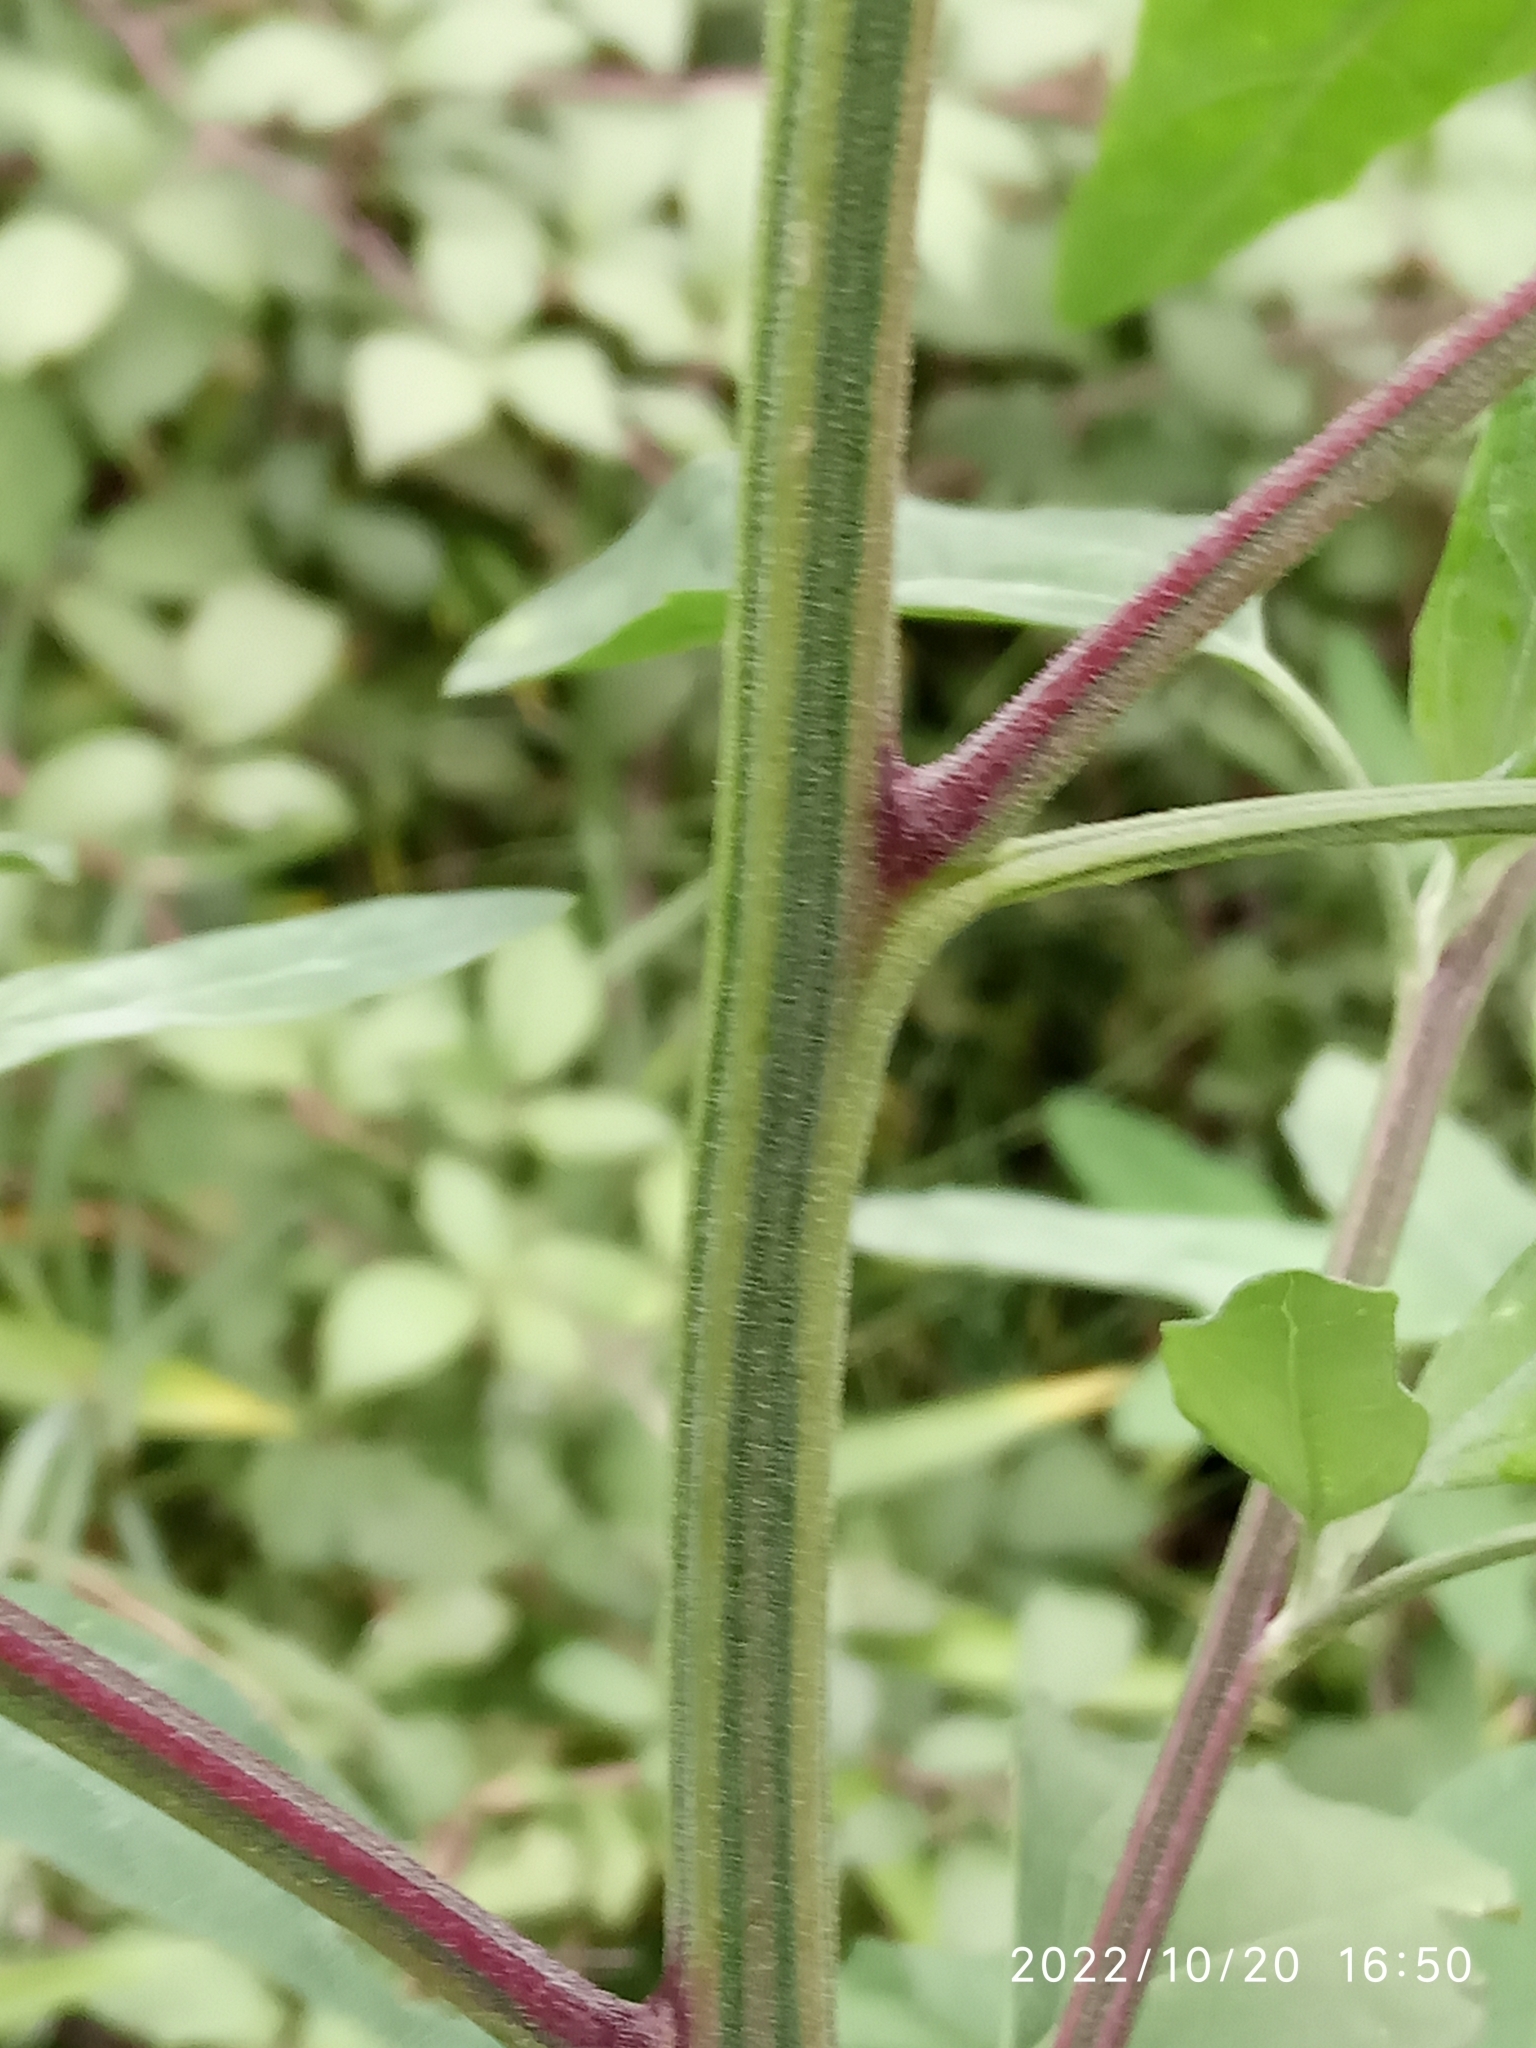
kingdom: Plantae
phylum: Tracheophyta
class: Magnoliopsida
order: Caryophyllales
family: Amaranthaceae
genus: Chenopodium
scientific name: Chenopodium album
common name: Fat-hen
